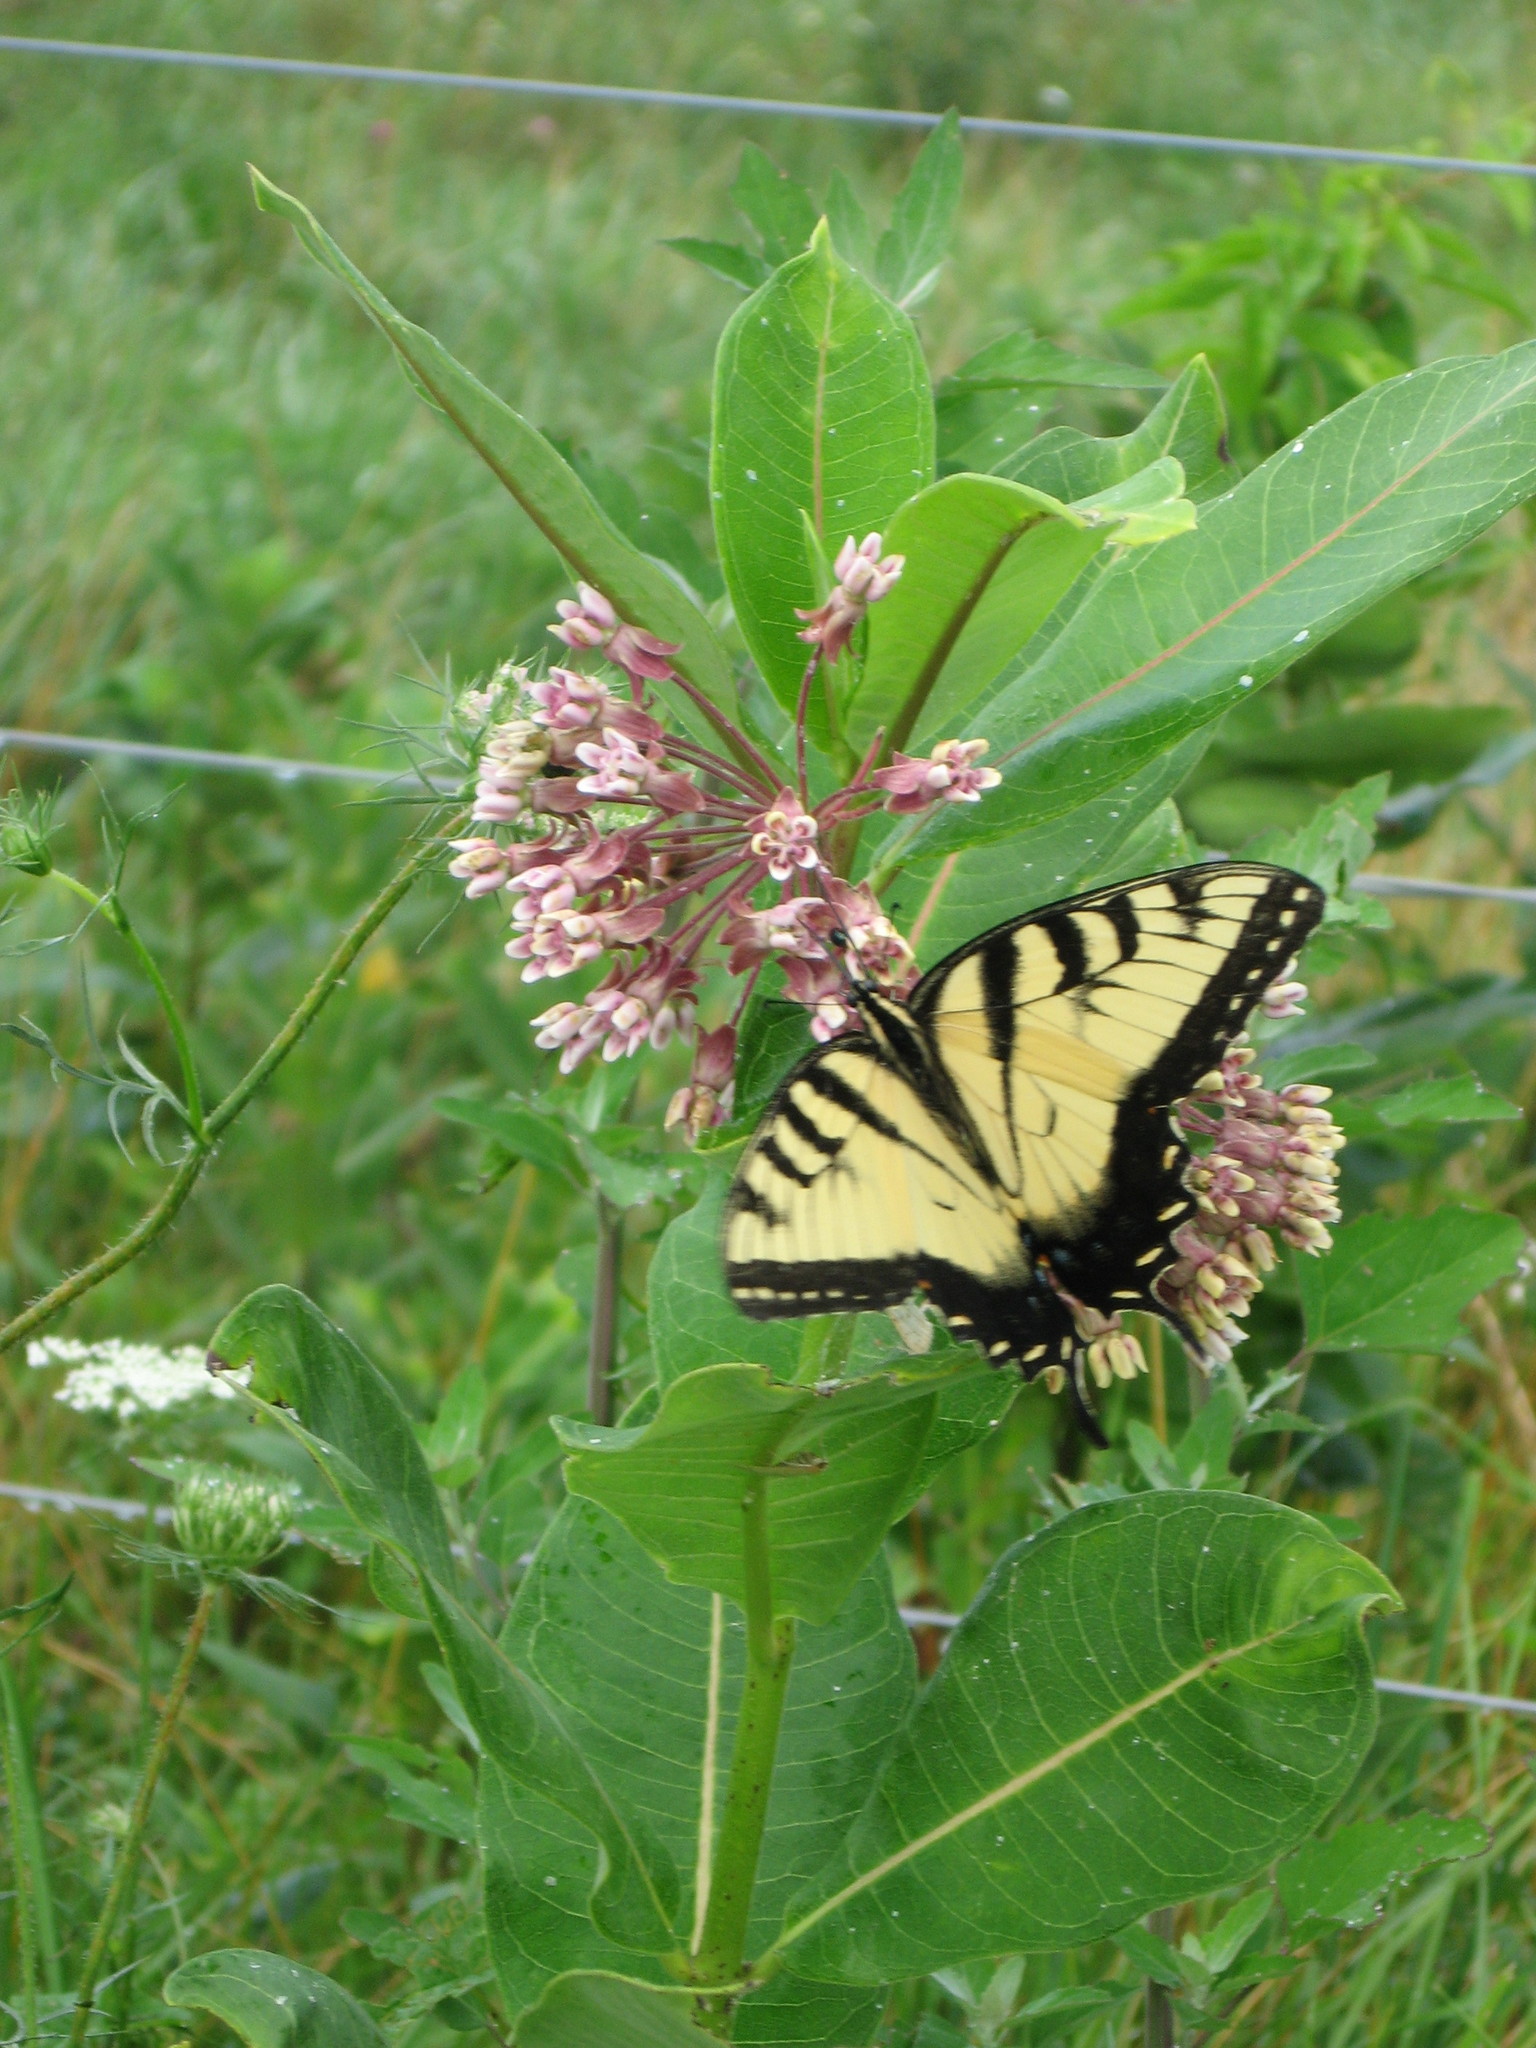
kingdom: Animalia
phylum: Arthropoda
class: Insecta
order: Lepidoptera
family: Papilionidae
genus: Papilio
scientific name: Papilio glaucus
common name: Tiger swallowtail
